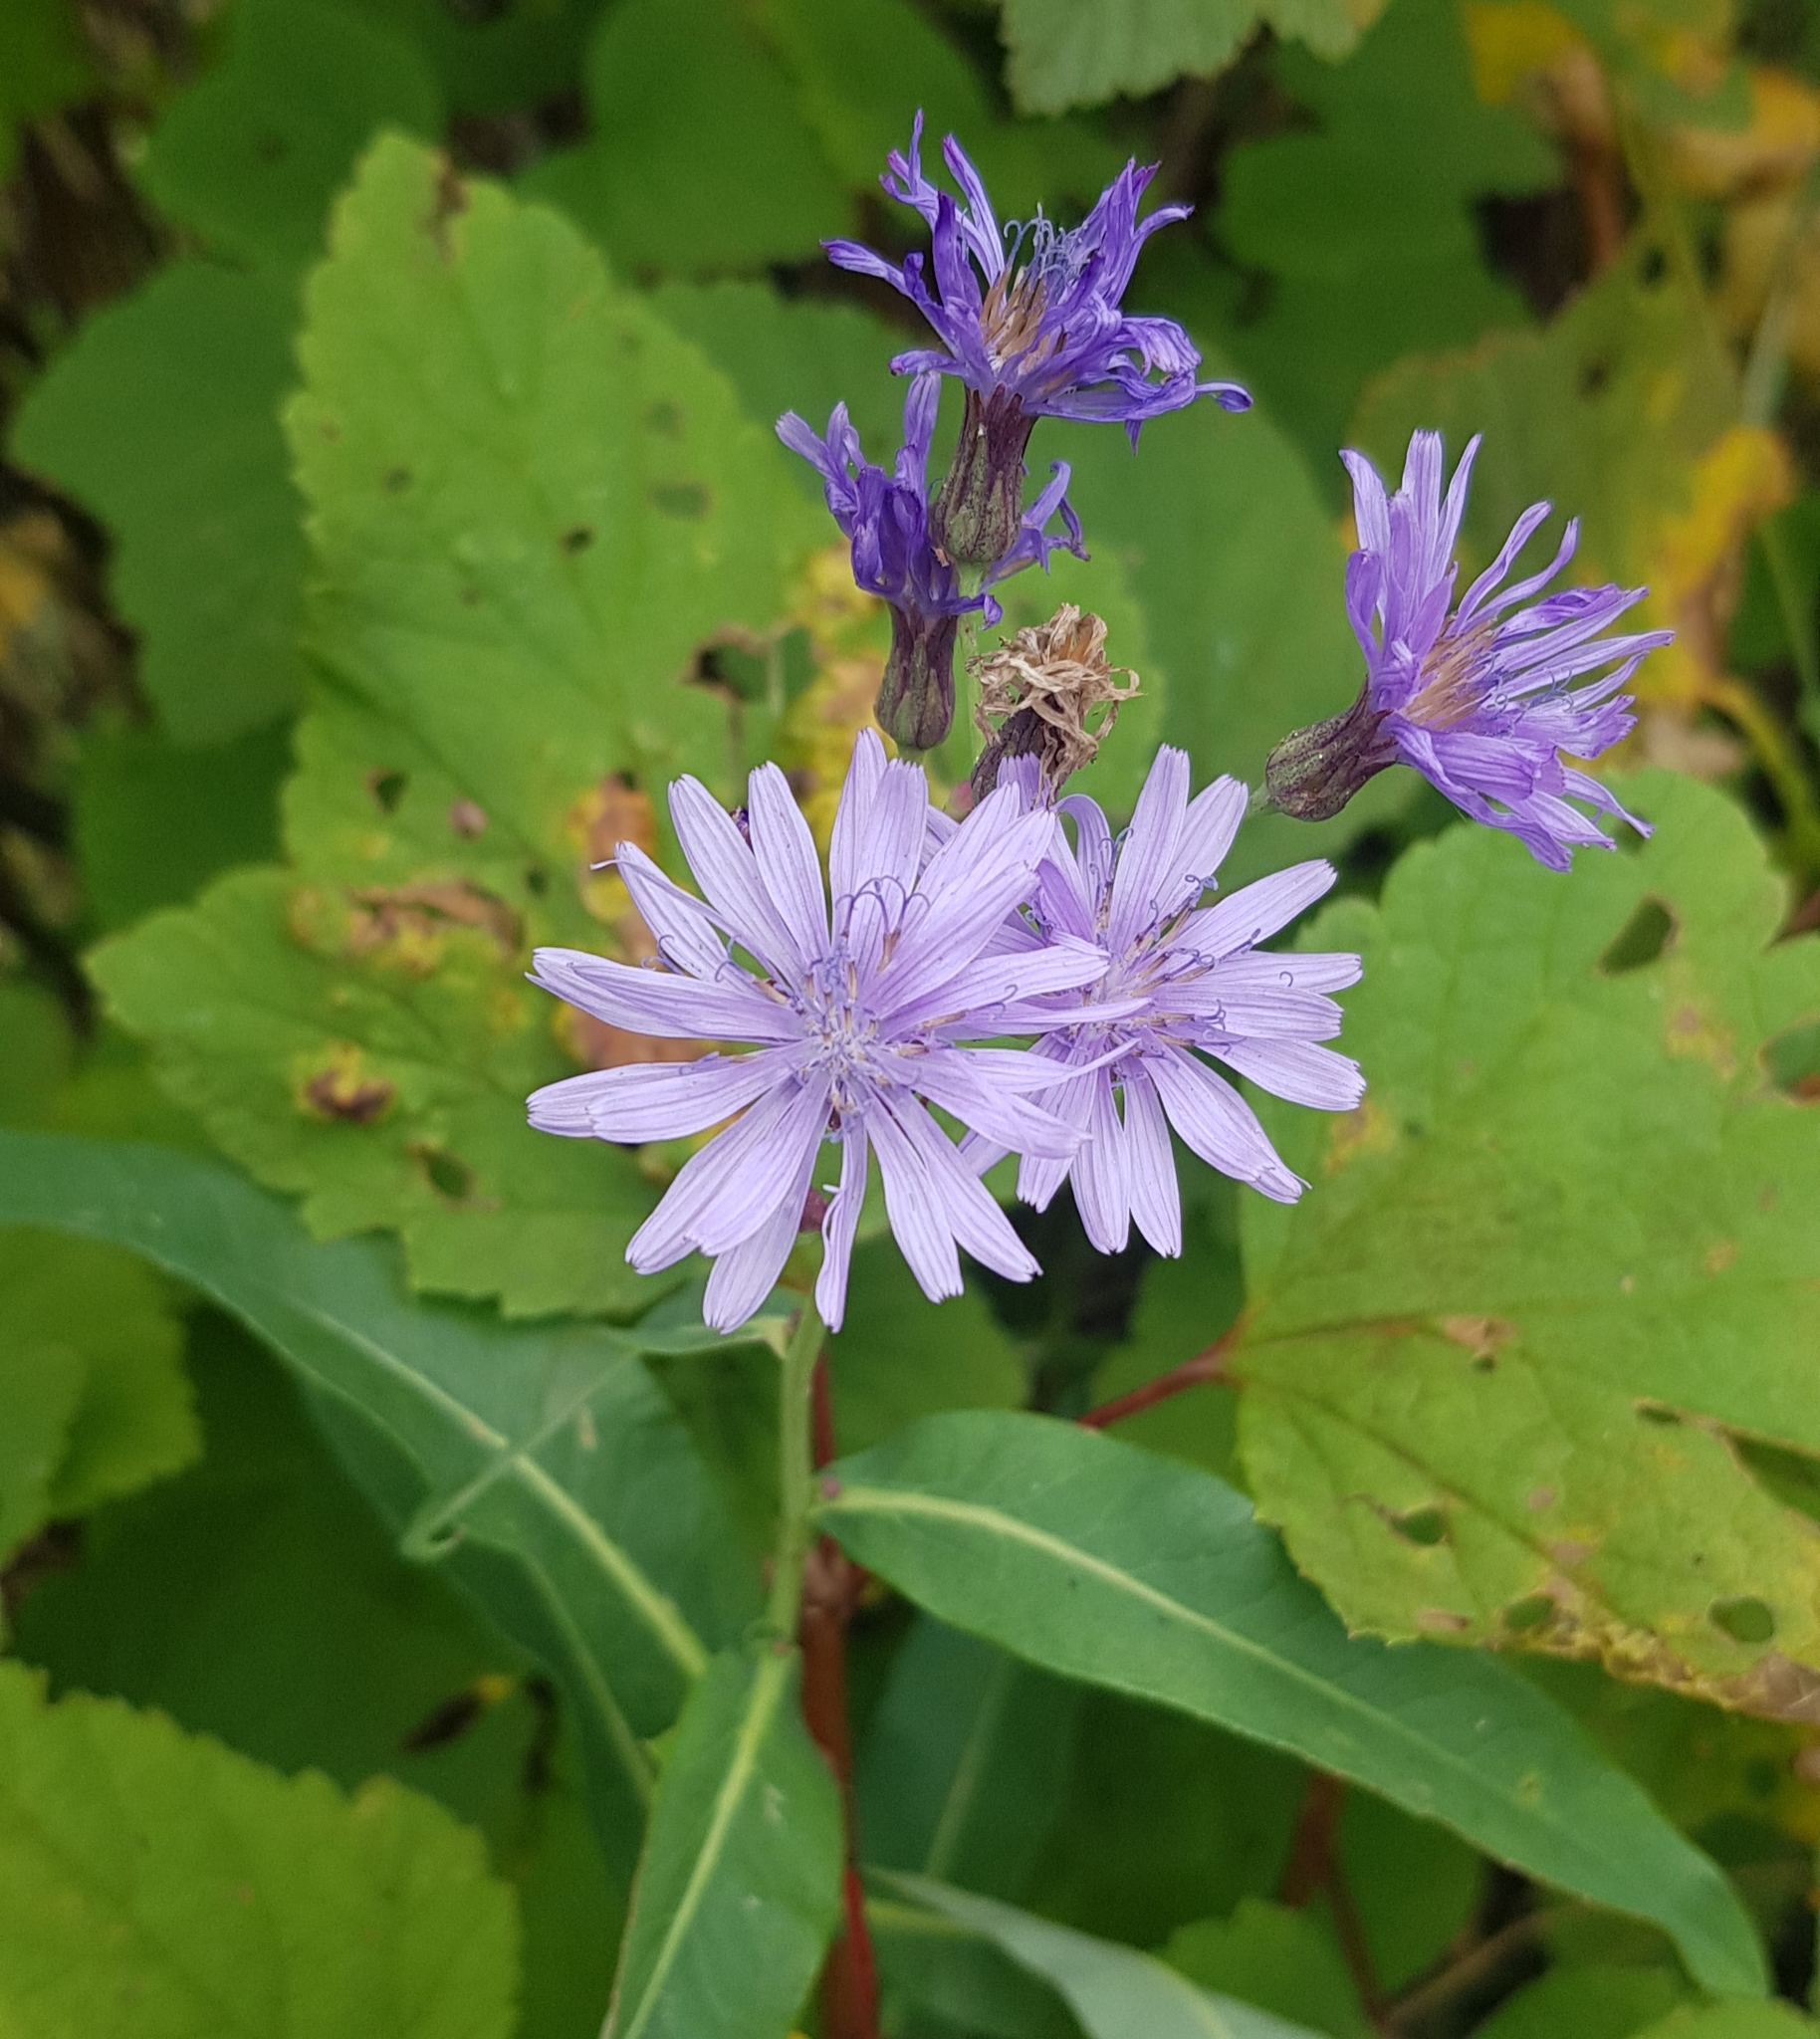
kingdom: Plantae
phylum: Tracheophyta
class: Magnoliopsida
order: Asterales
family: Asteraceae
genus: Lactuca
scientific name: Lactuca sibirica
